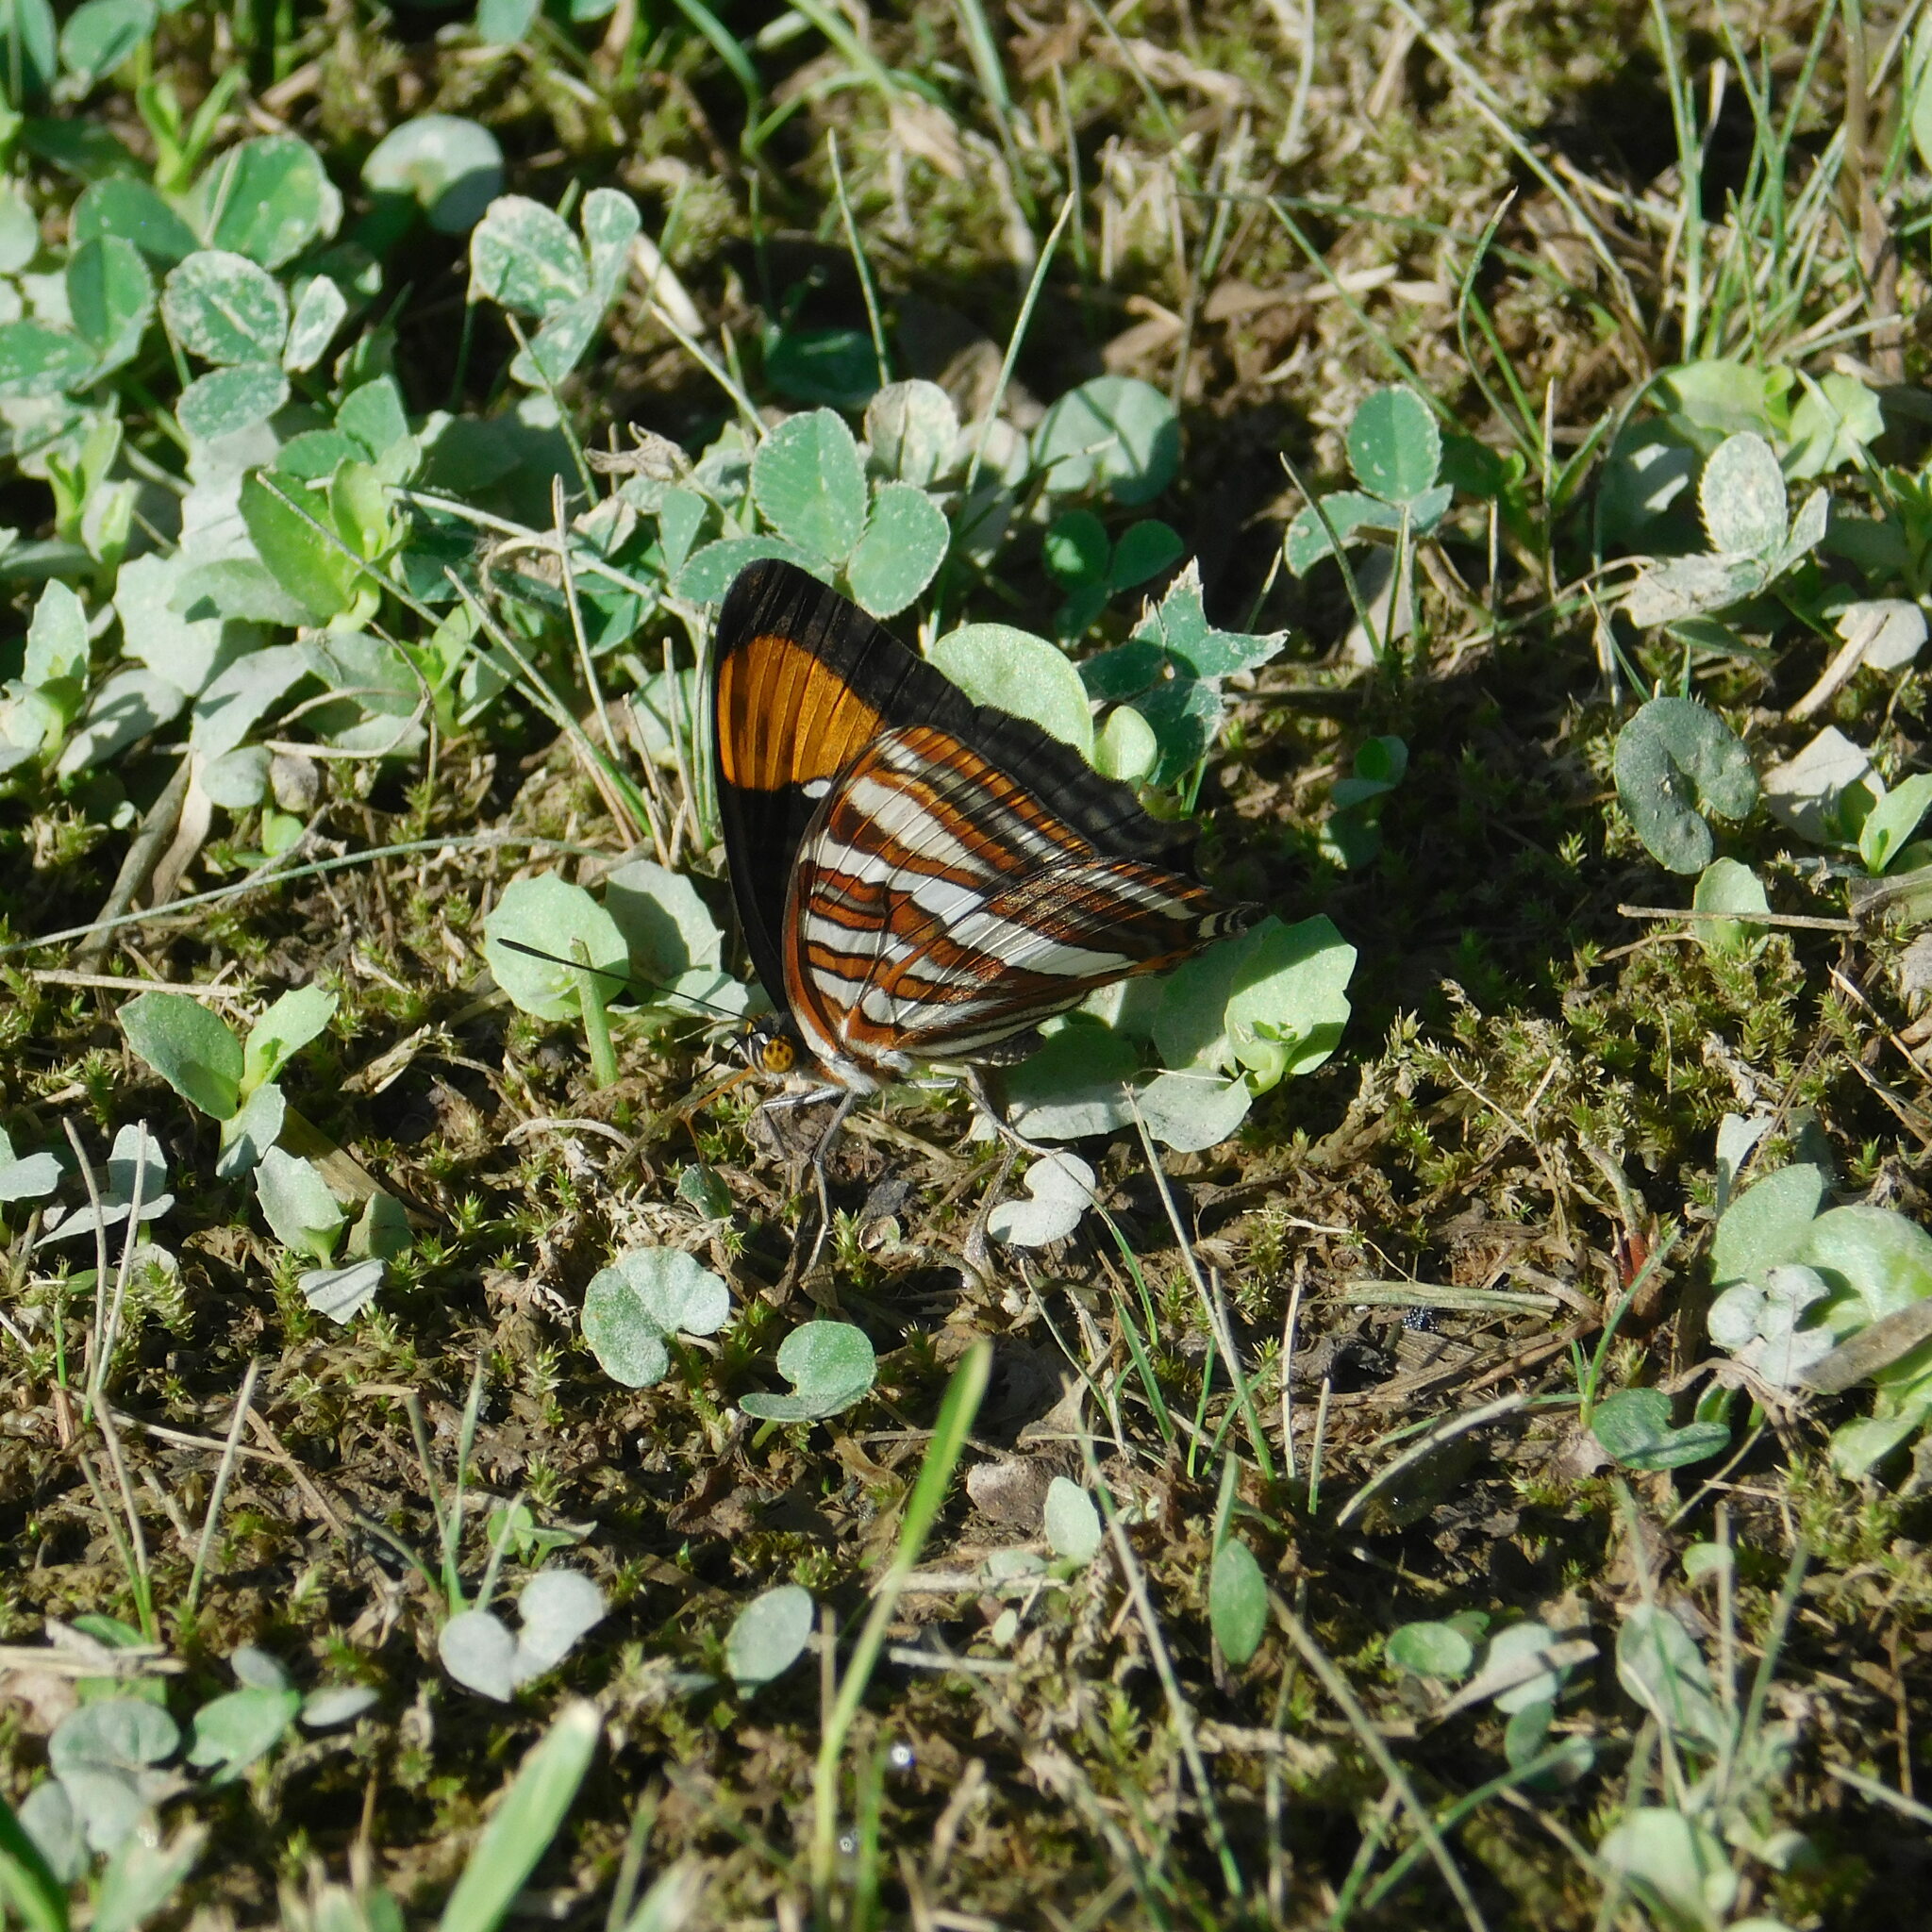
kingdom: Animalia
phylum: Arthropoda
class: Insecta
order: Lepidoptera
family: Nymphalidae
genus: Limenitis
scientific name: Limenitis syma
